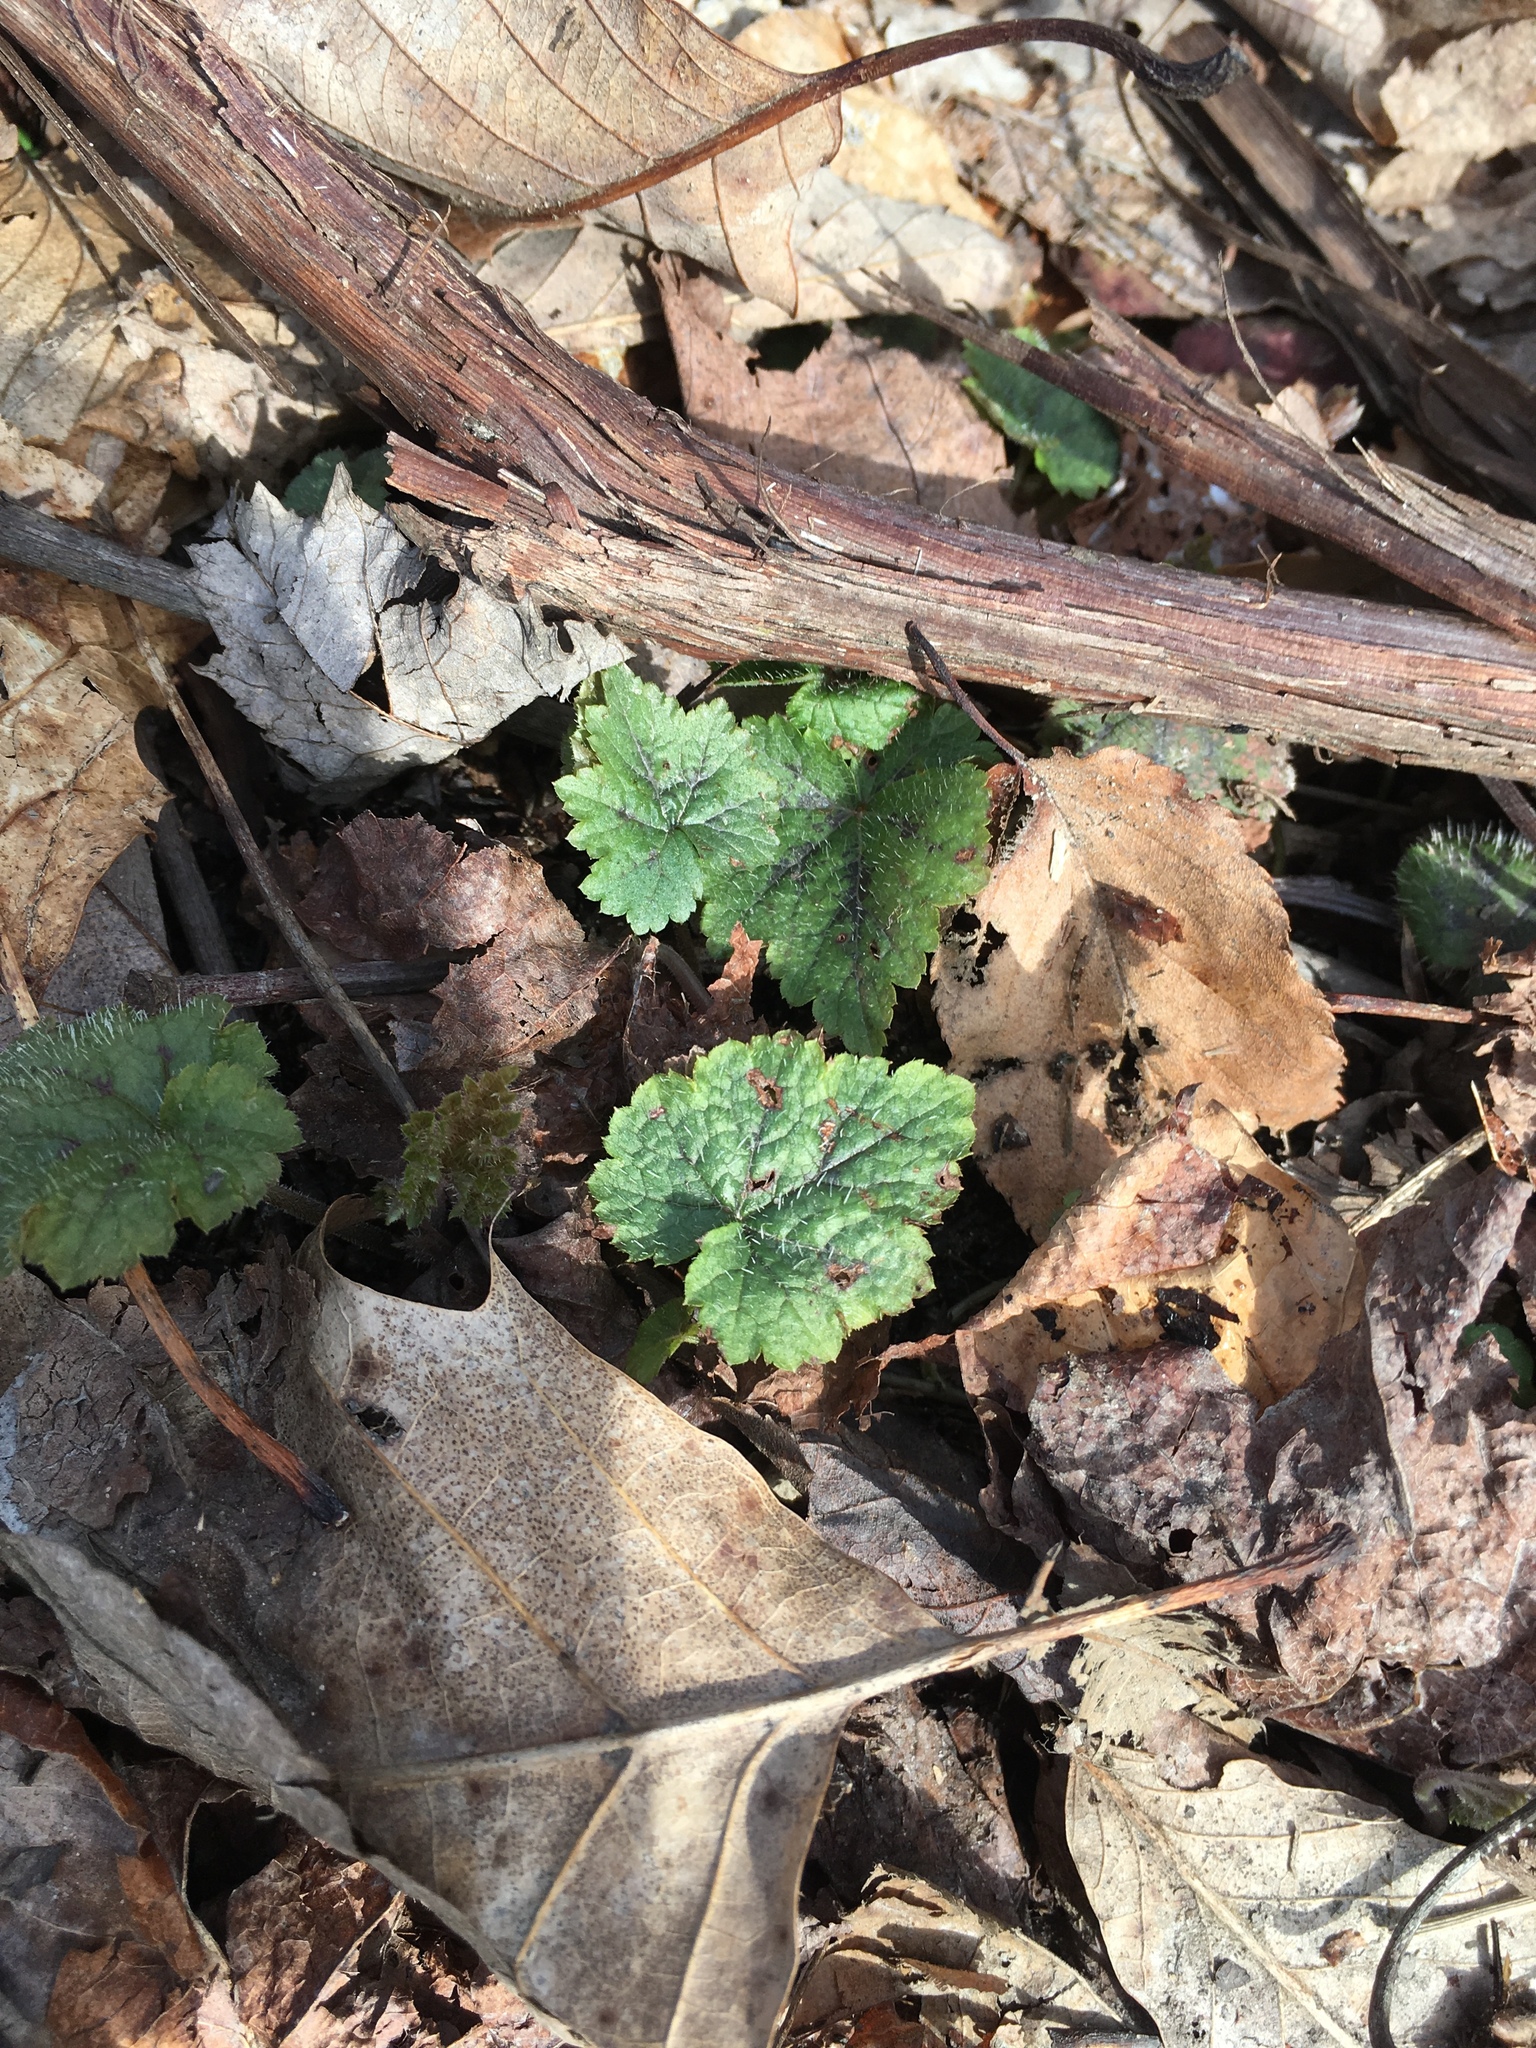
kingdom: Plantae
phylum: Tracheophyta
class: Magnoliopsida
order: Saxifragales
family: Saxifragaceae
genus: Tiarella
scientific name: Tiarella stolonifera
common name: Stoloniferous foamflower
